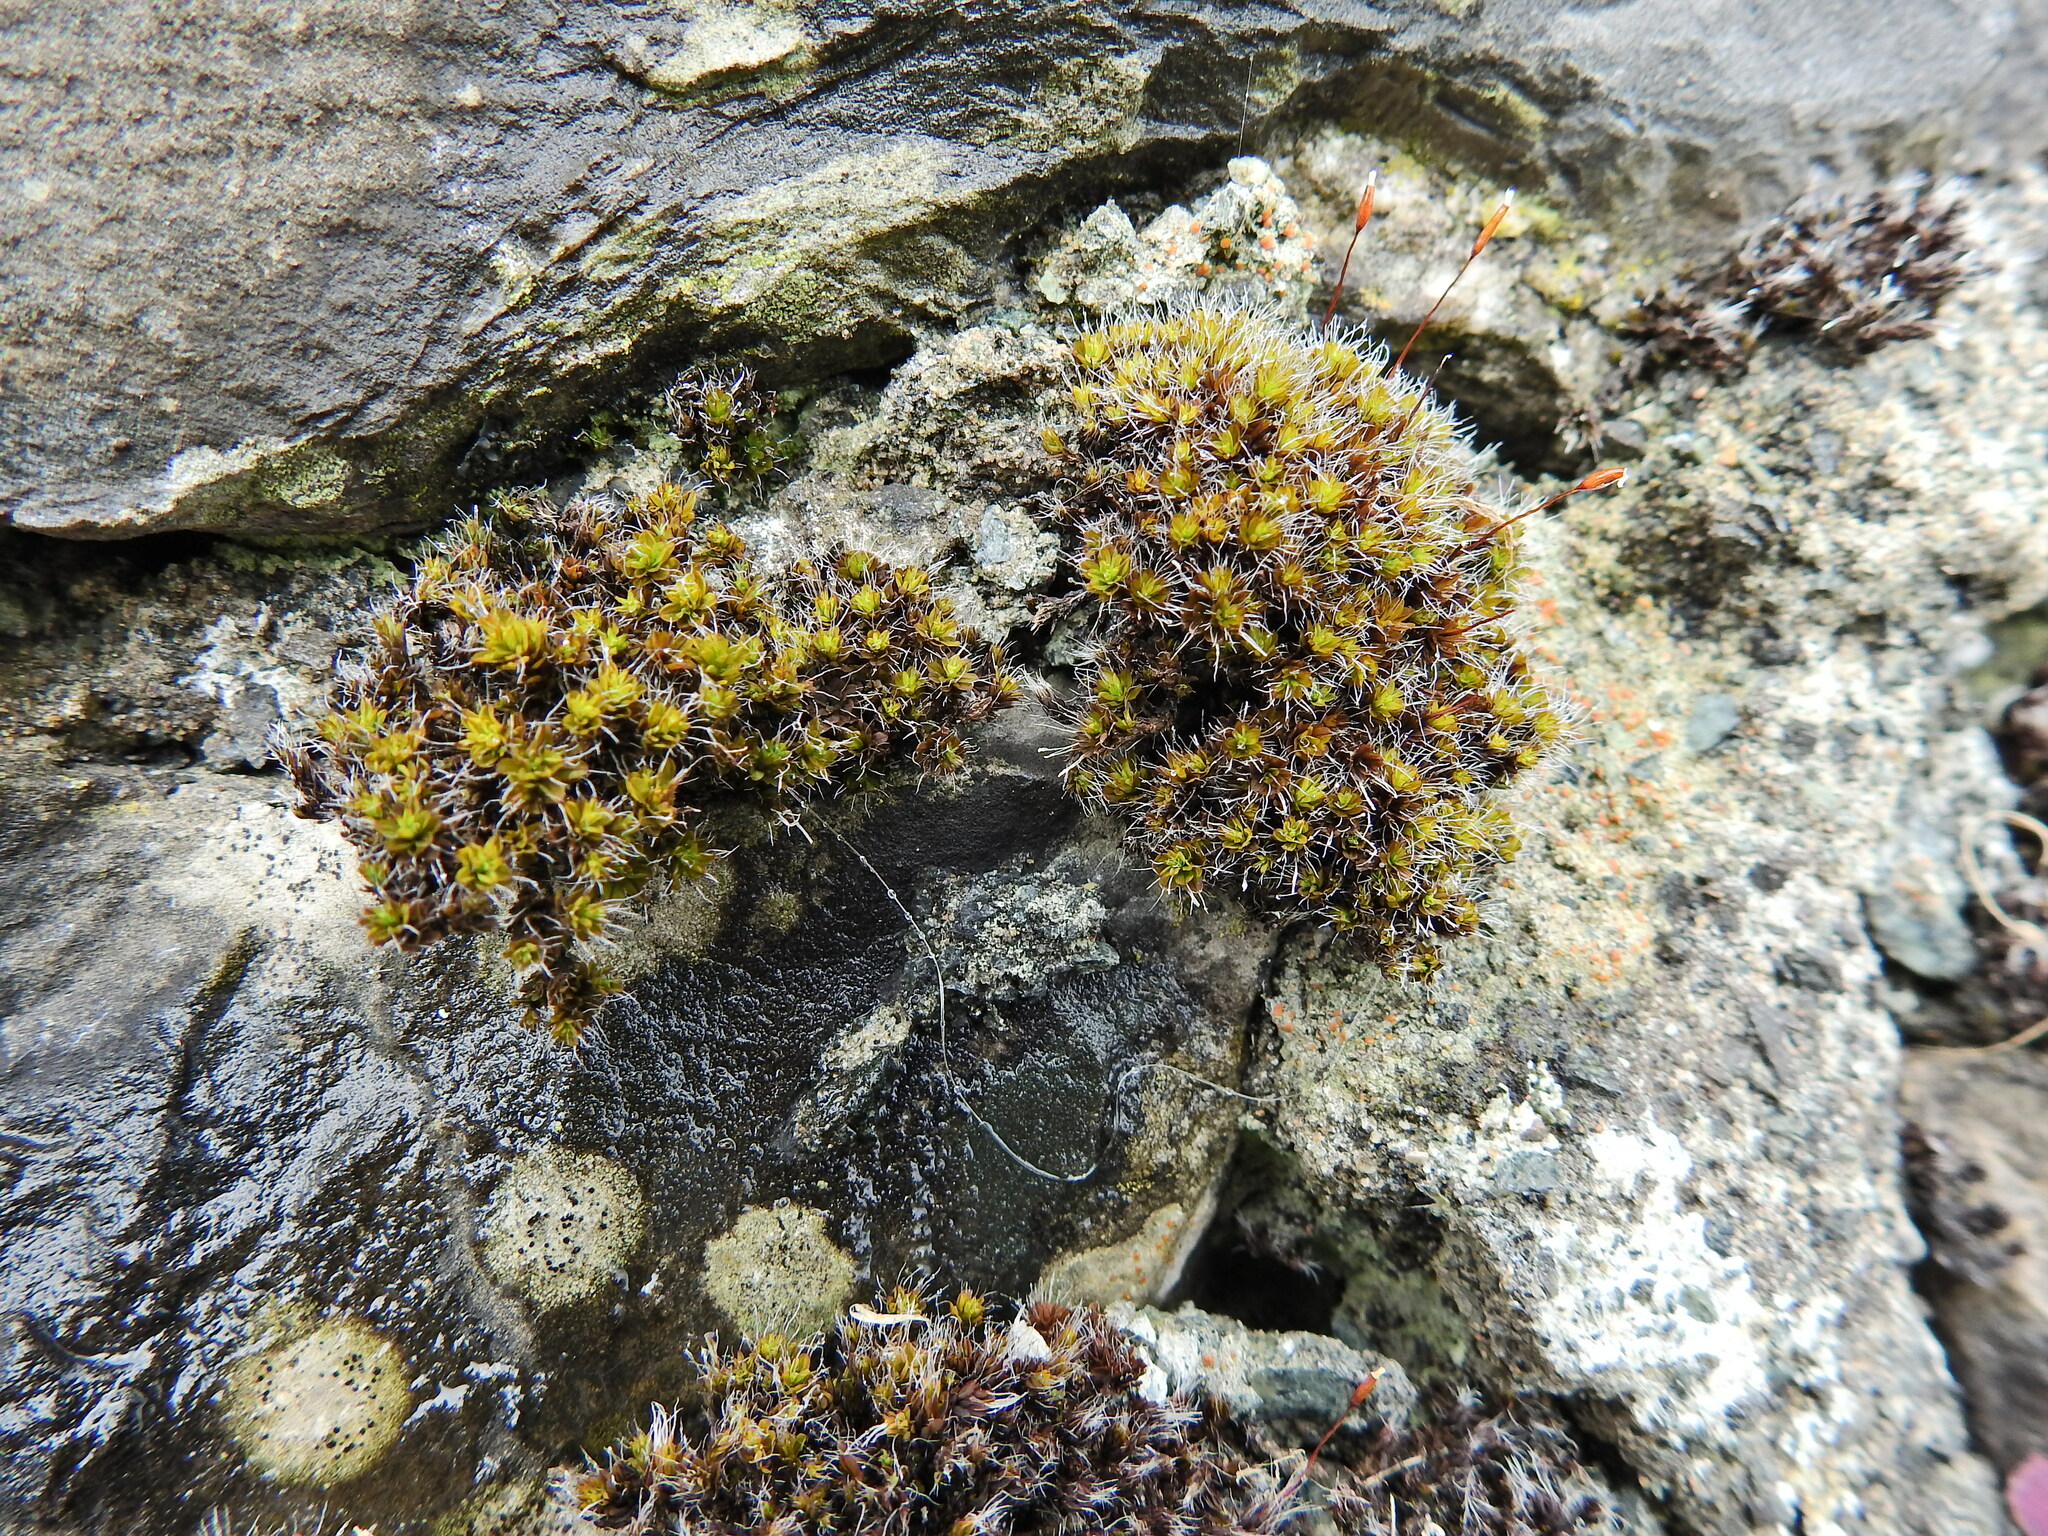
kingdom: Plantae
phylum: Bryophyta
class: Bryopsida
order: Pottiales
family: Pottiaceae
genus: Syntrichia
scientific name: Syntrichia montana
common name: Intermediate screw-moss
